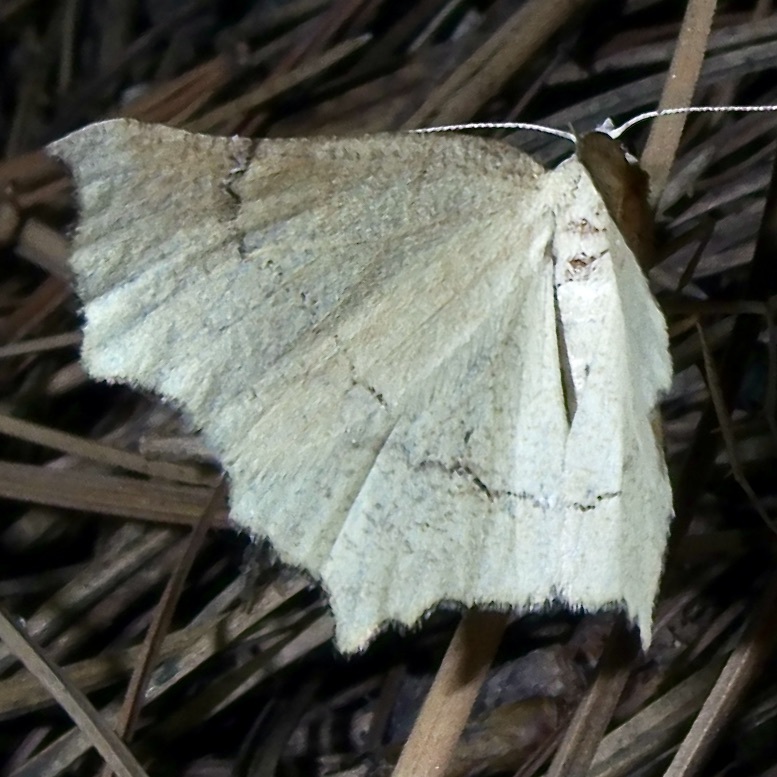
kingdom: Animalia
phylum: Arthropoda
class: Insecta
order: Lepidoptera
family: Geometridae
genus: Eriplatymetra
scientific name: Eriplatymetra grotearia
